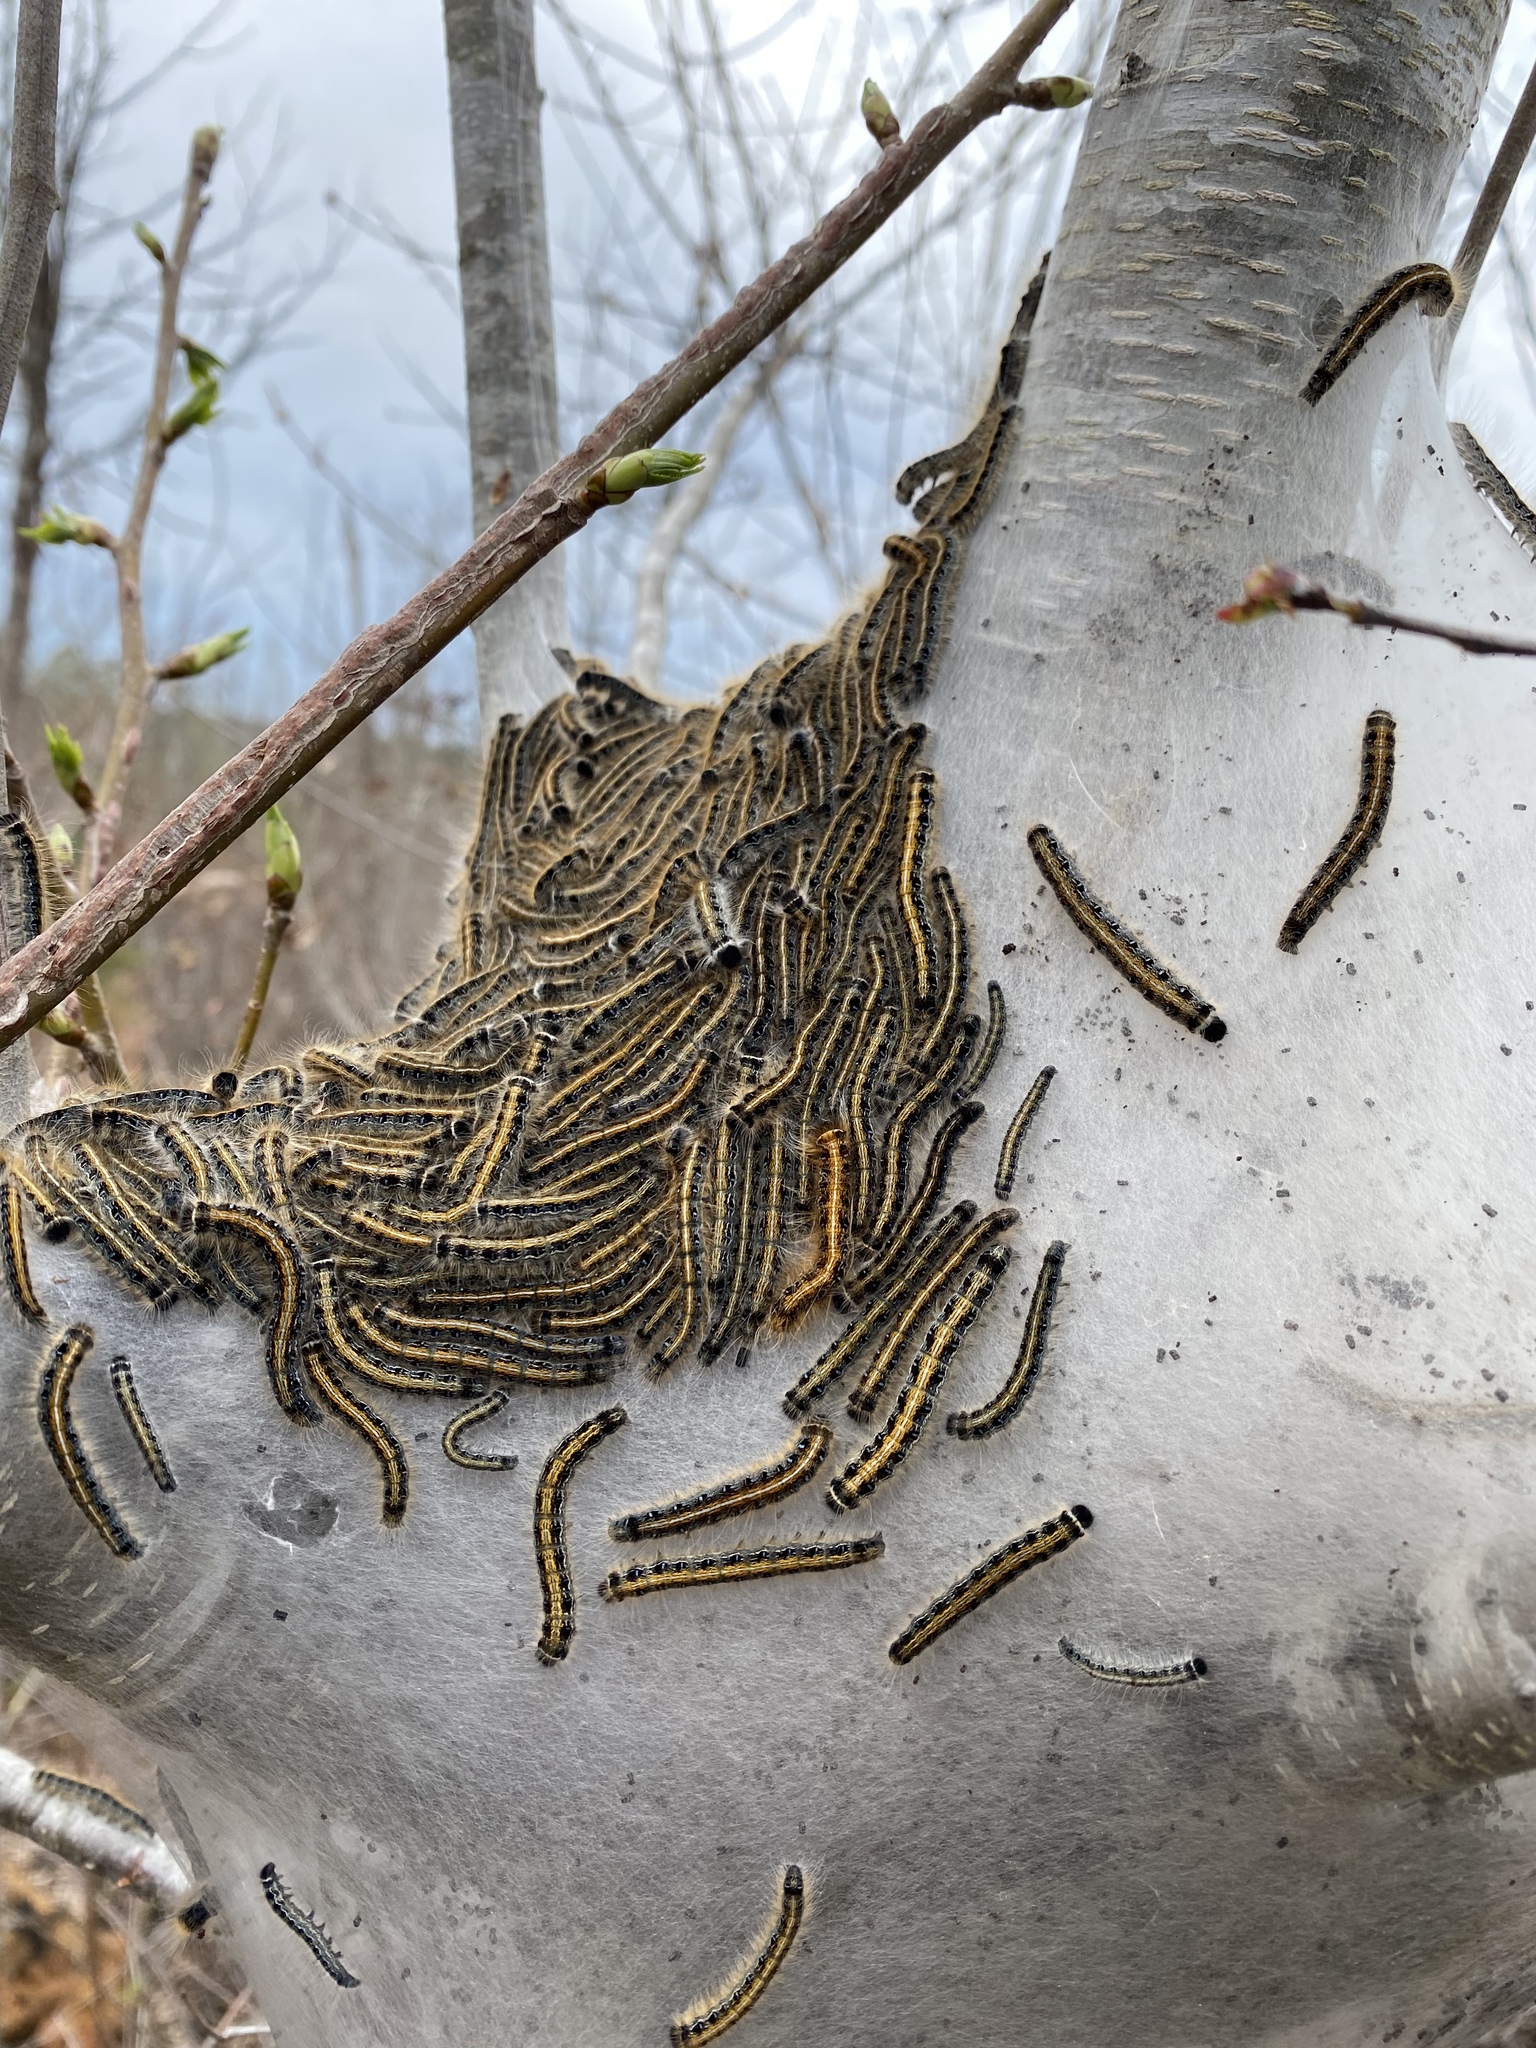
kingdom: Animalia
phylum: Arthropoda
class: Insecta
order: Lepidoptera
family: Lasiocampidae
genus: Malacosoma
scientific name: Malacosoma americana
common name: Eastern tent caterpillar moth
